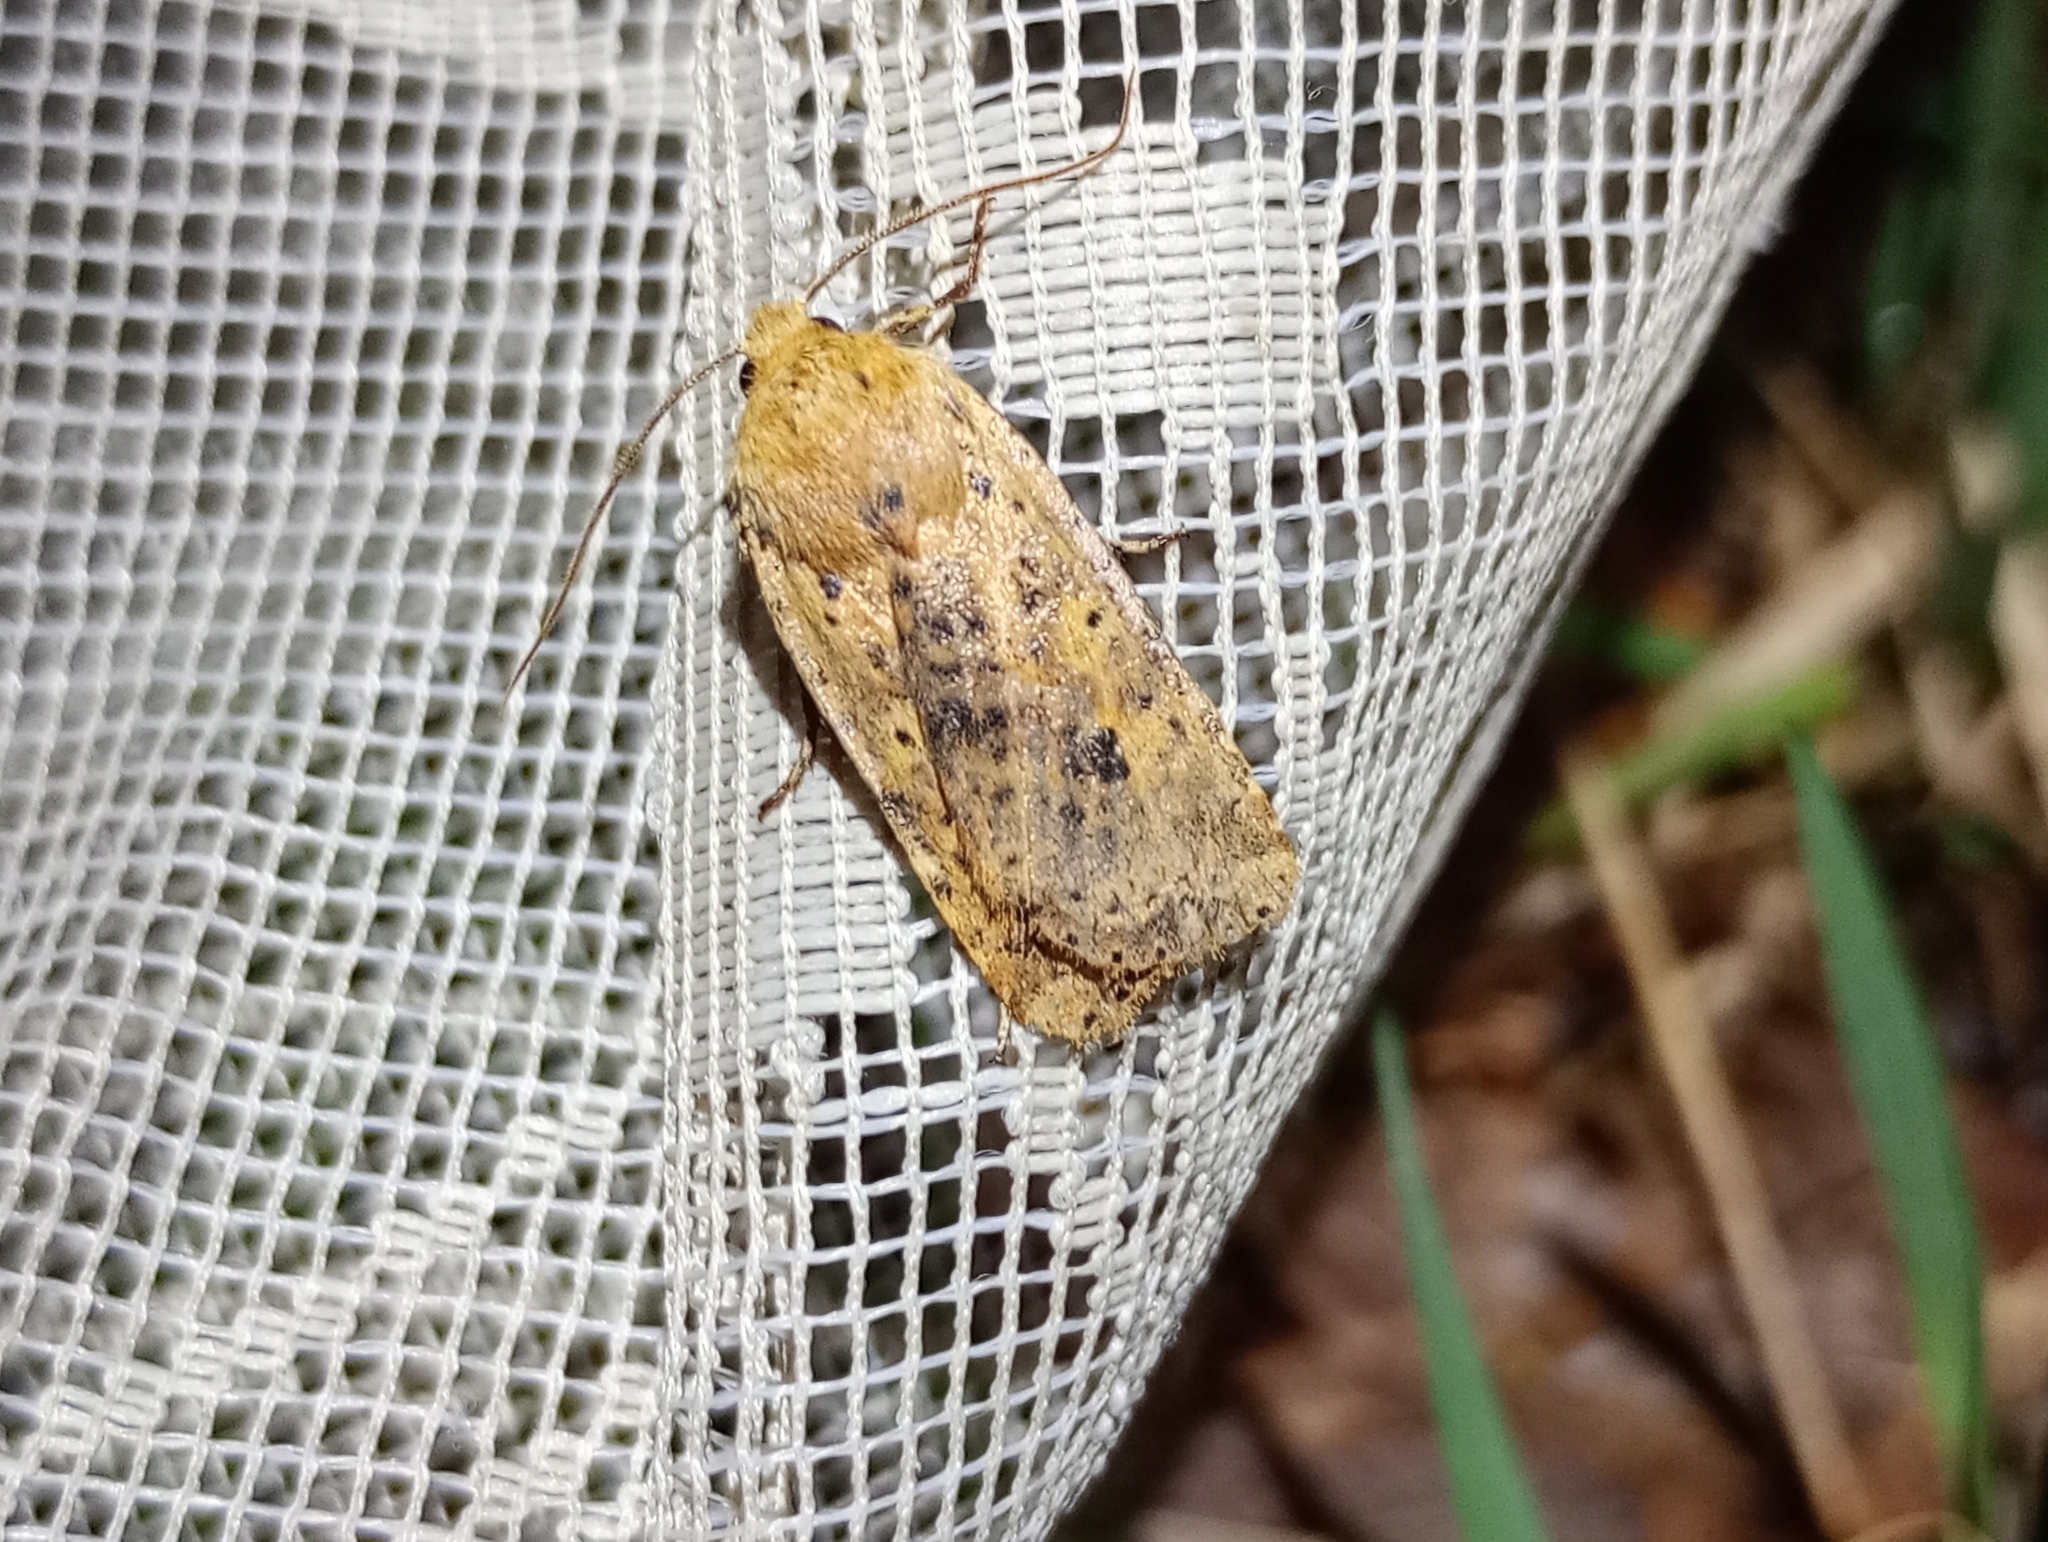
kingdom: Animalia
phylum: Arthropoda
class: Insecta
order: Lepidoptera
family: Noctuidae
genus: Conistra
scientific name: Conistra rubiginea
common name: Dotted chestnut
